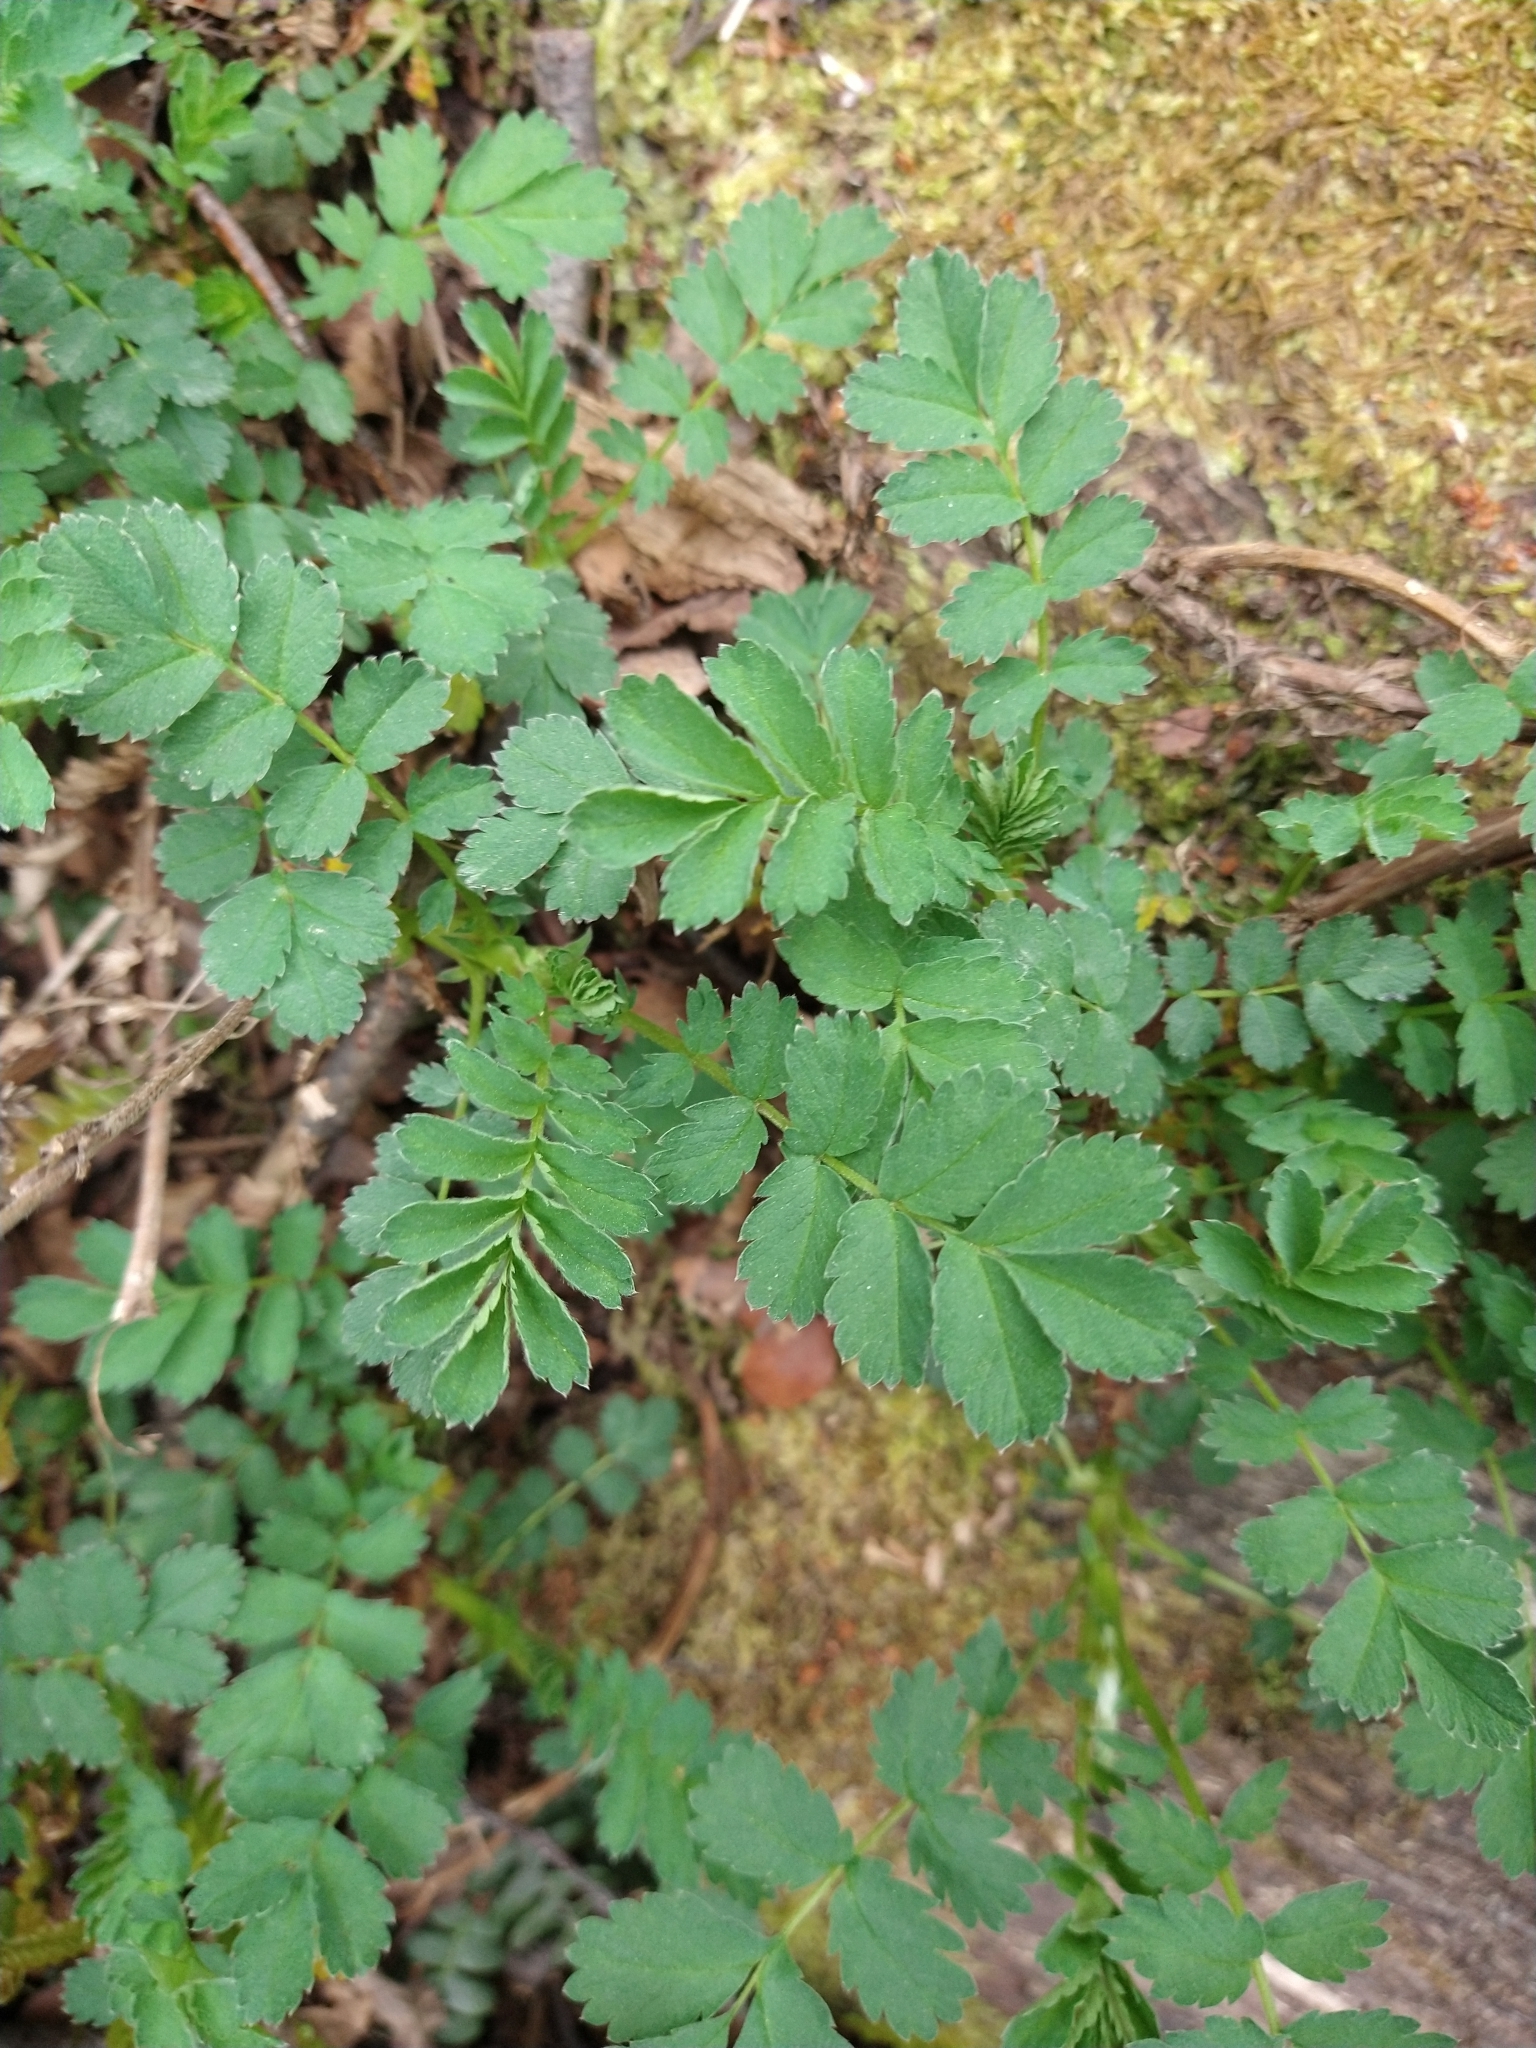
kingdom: Plantae
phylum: Tracheophyta
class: Magnoliopsida
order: Rosales
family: Rosaceae
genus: Acaena
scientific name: Acaena magellanica
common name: New zealand burr
